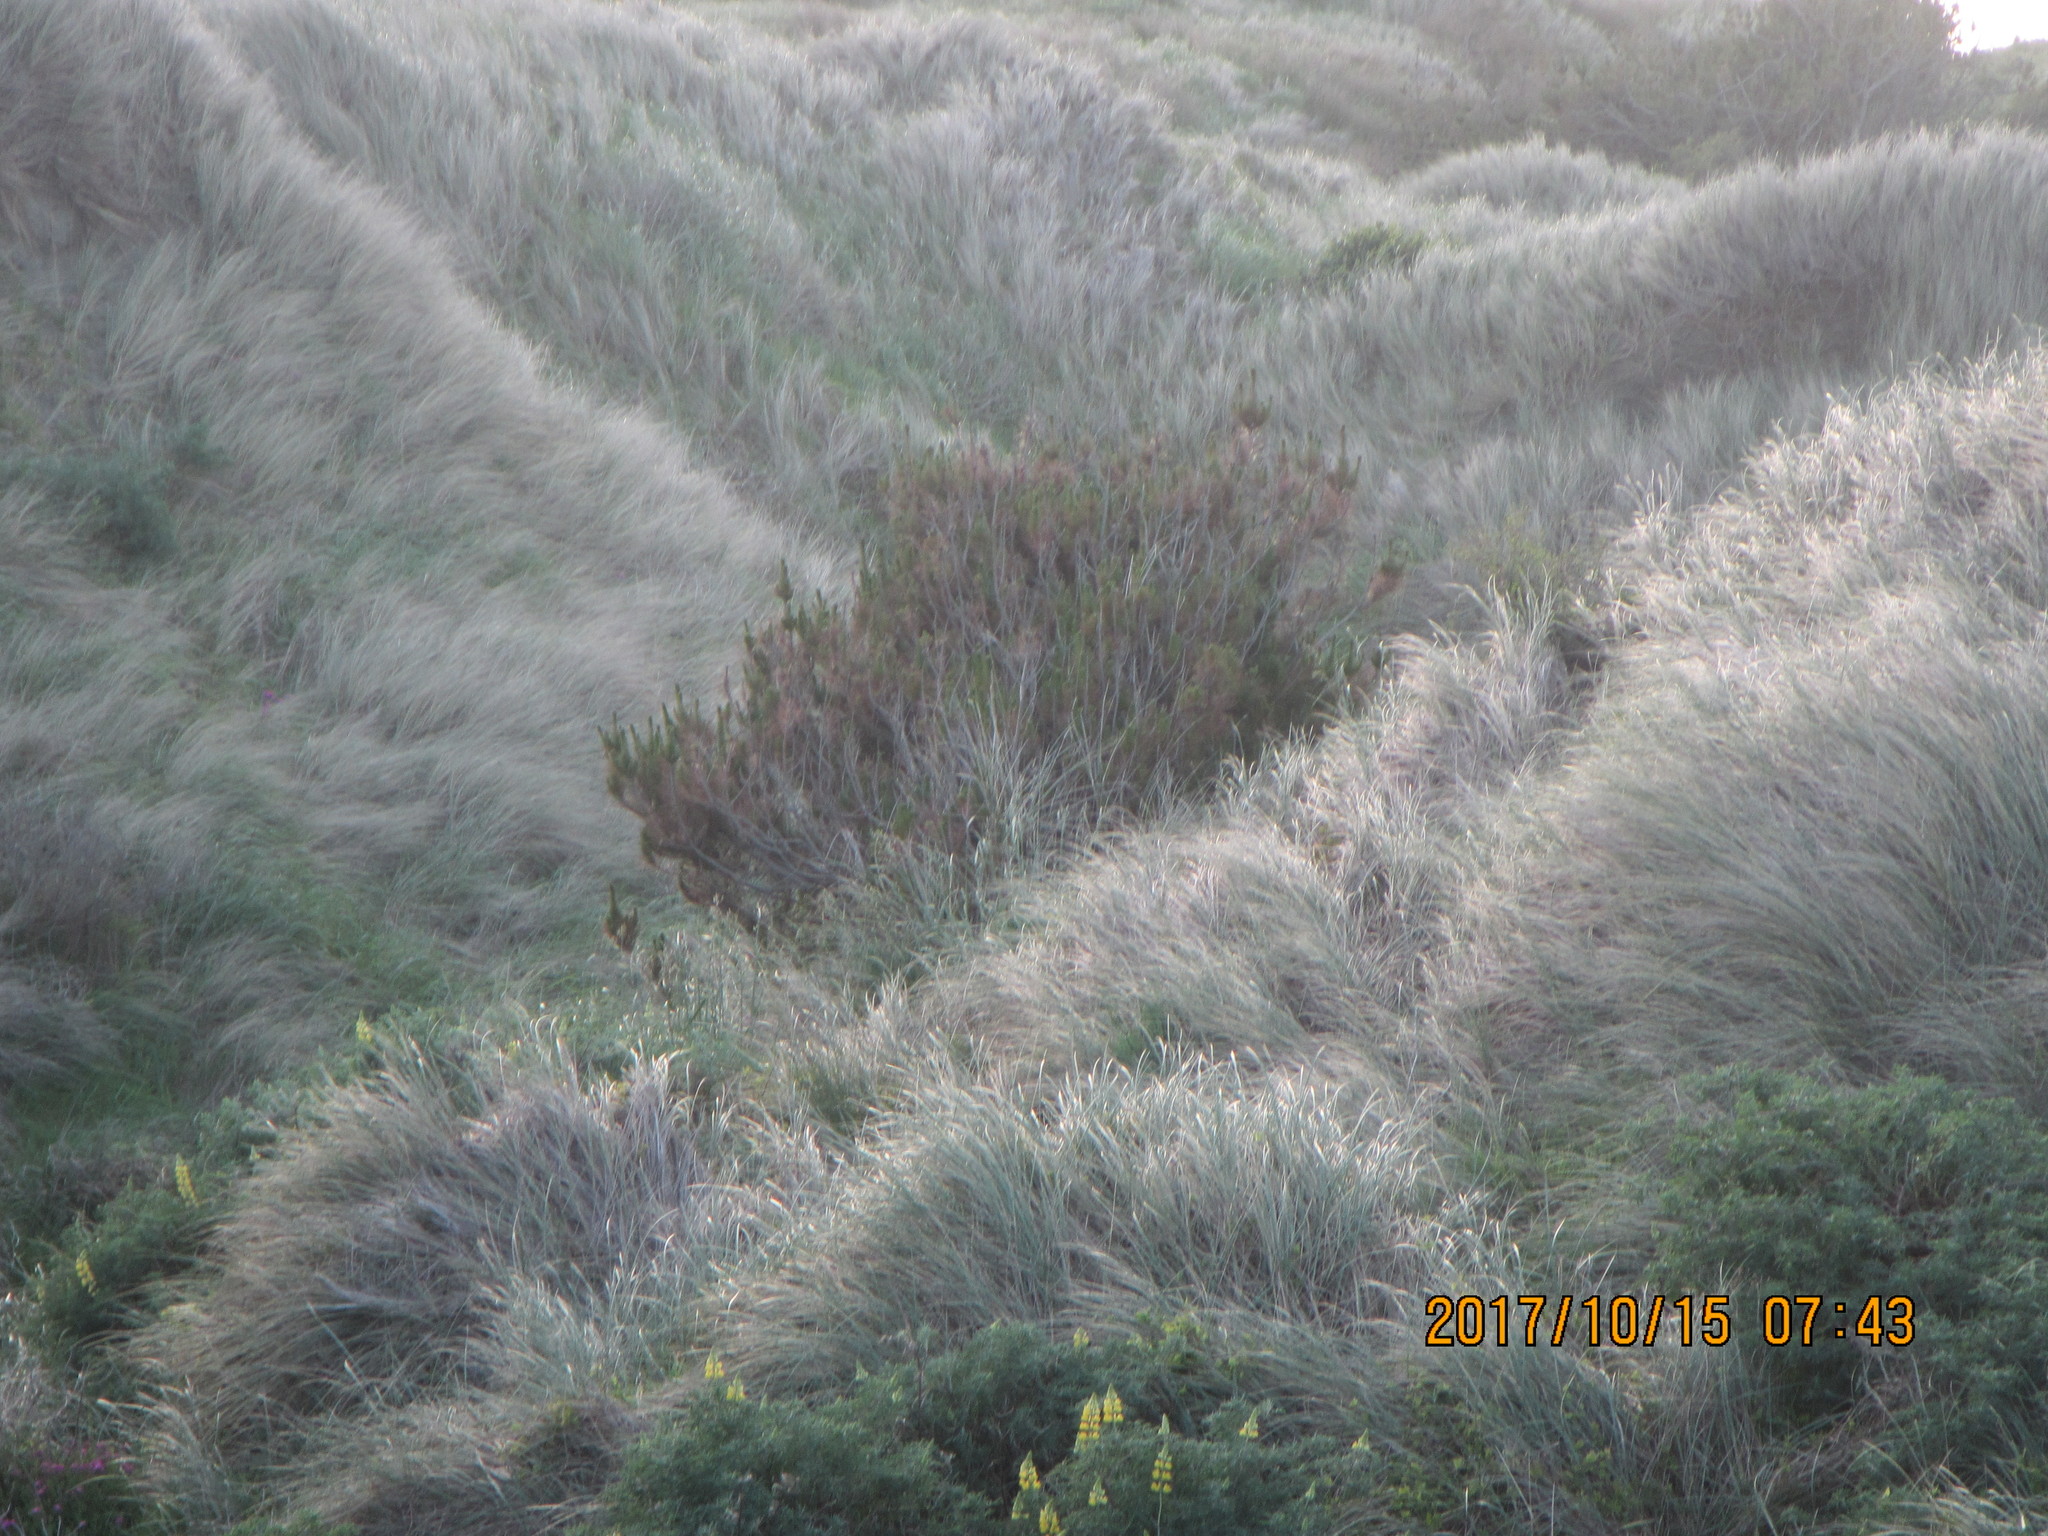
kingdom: Plantae
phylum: Tracheophyta
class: Pinopsida
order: Pinales
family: Pinaceae
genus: Pinus
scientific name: Pinus radiata
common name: Monterey pine
